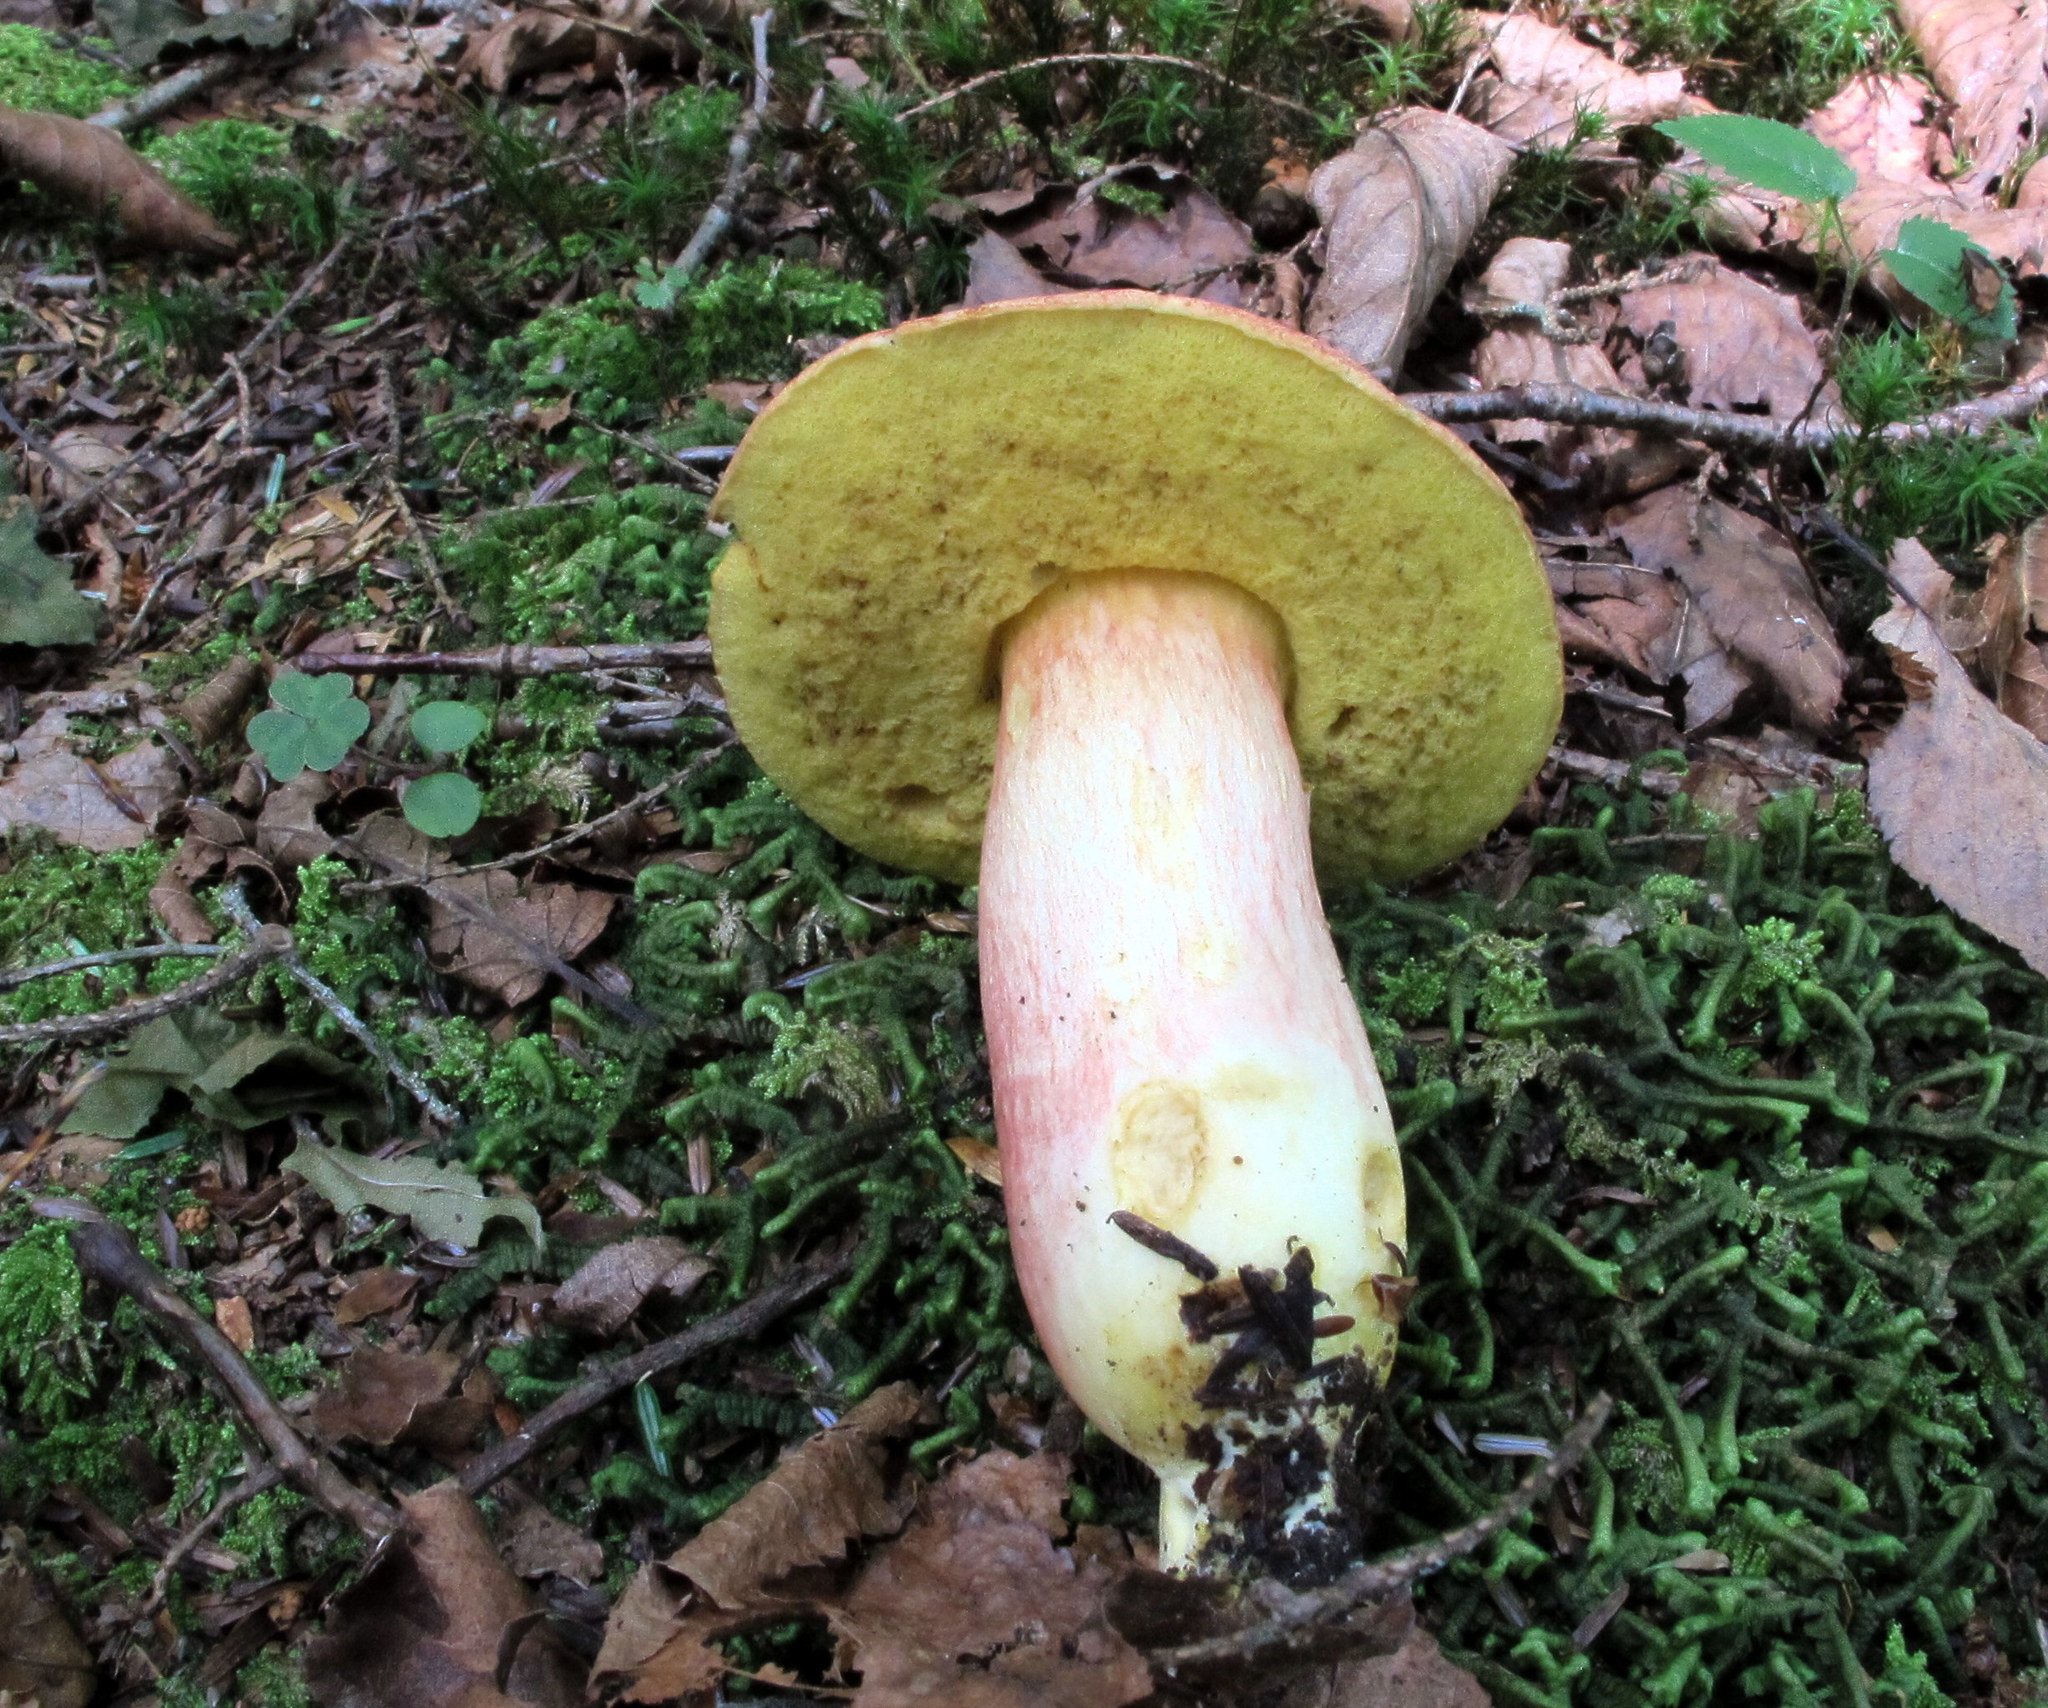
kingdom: Fungi
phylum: Basidiomycota
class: Agaricomycetes
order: Boletales
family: Boletaceae
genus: Boletus
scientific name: Boletus
